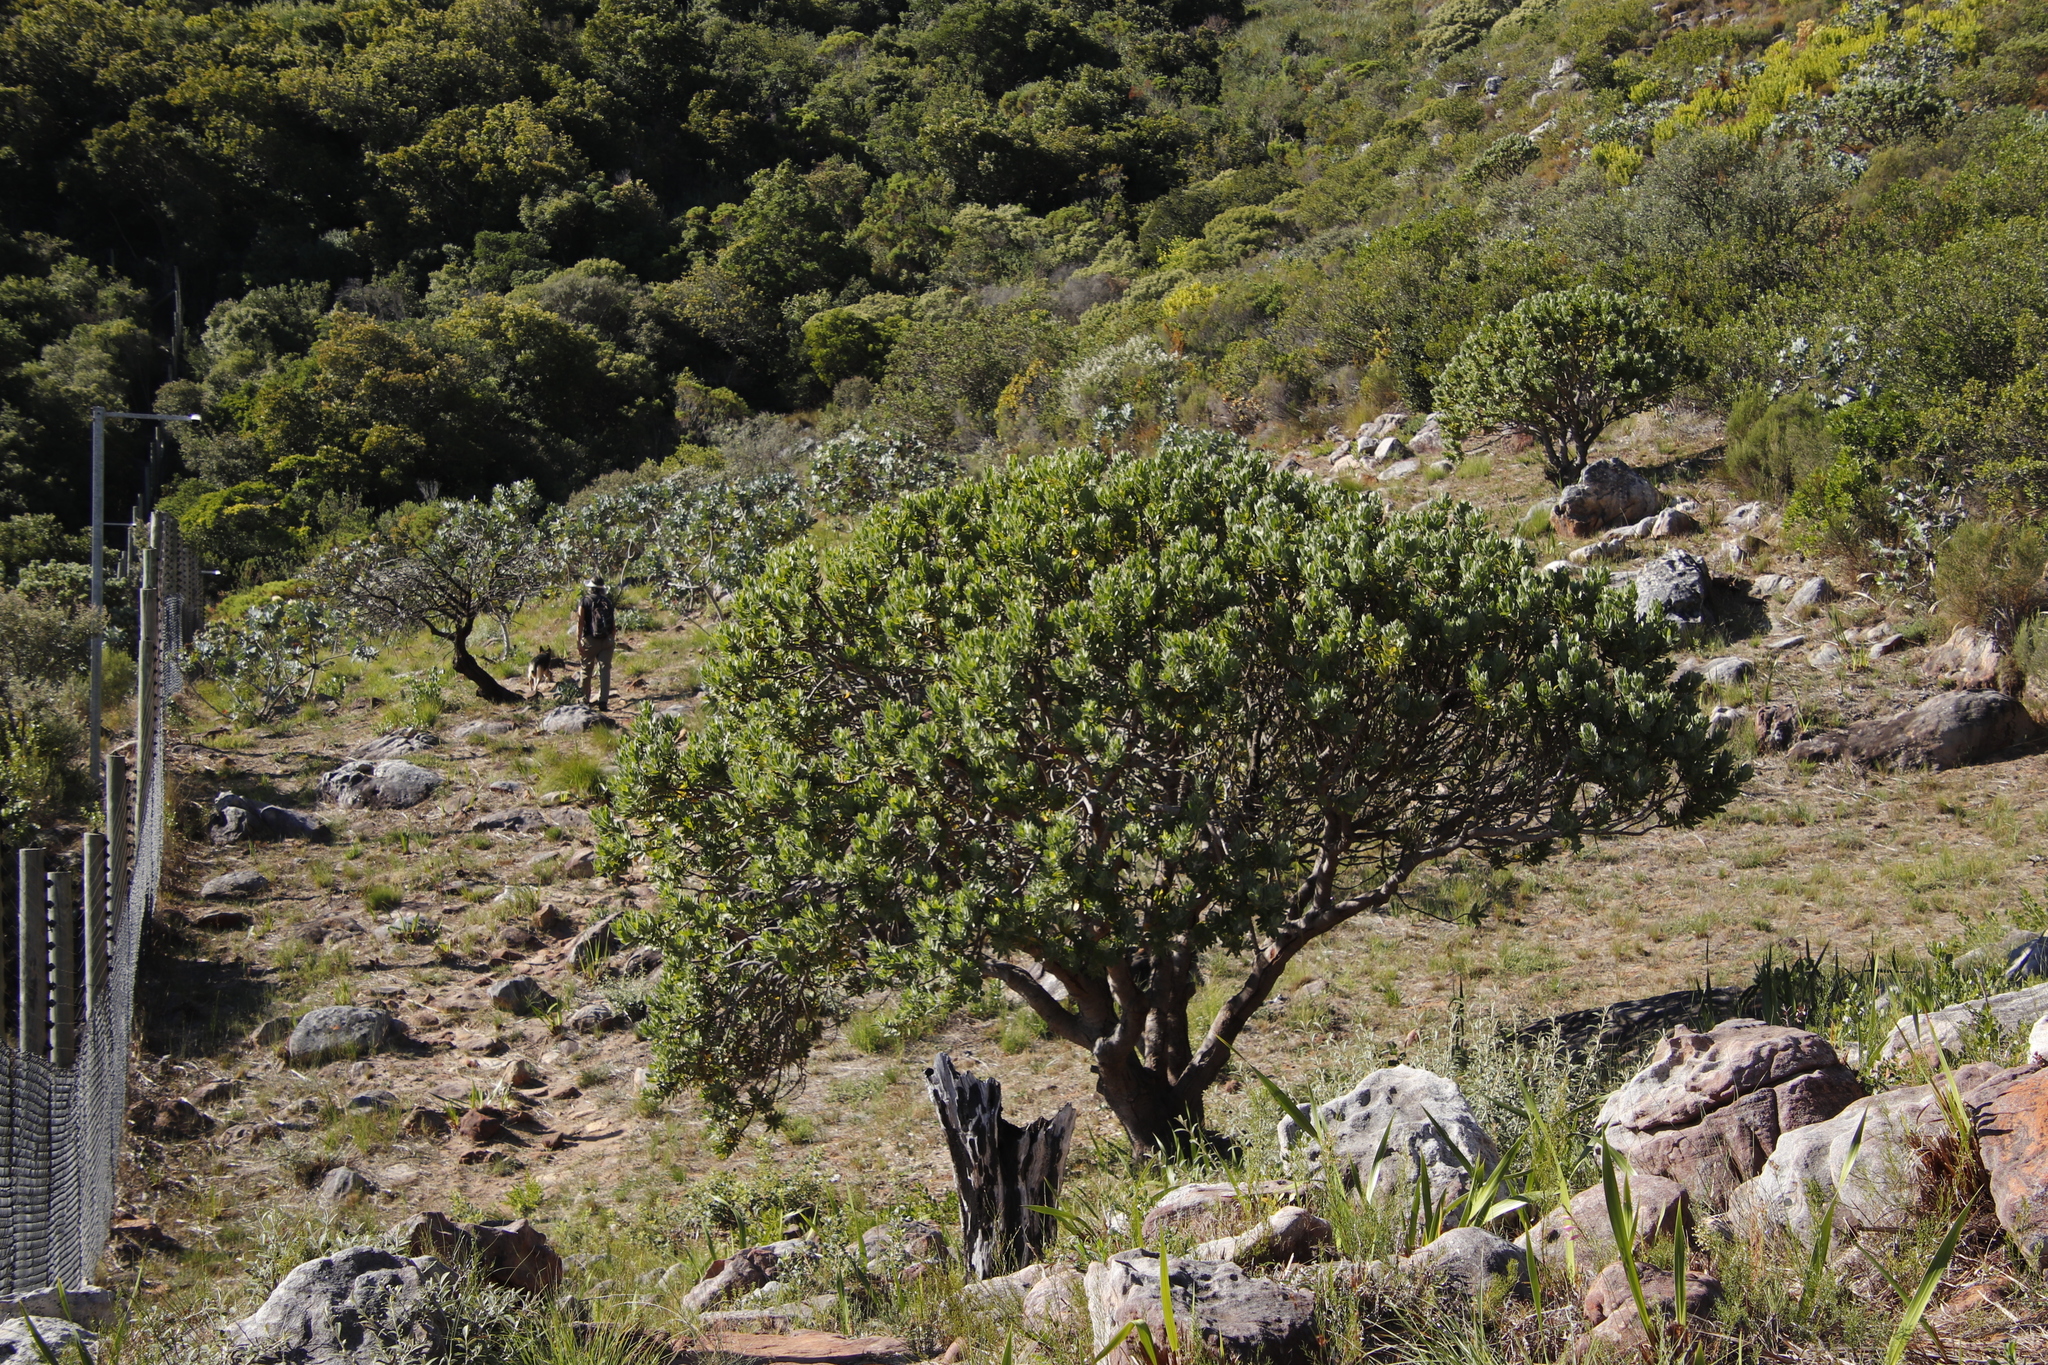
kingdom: Plantae
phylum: Tracheophyta
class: Magnoliopsida
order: Proteales
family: Proteaceae
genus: Leucospermum
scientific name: Leucospermum conocarpodendron
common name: Tree pincushion
